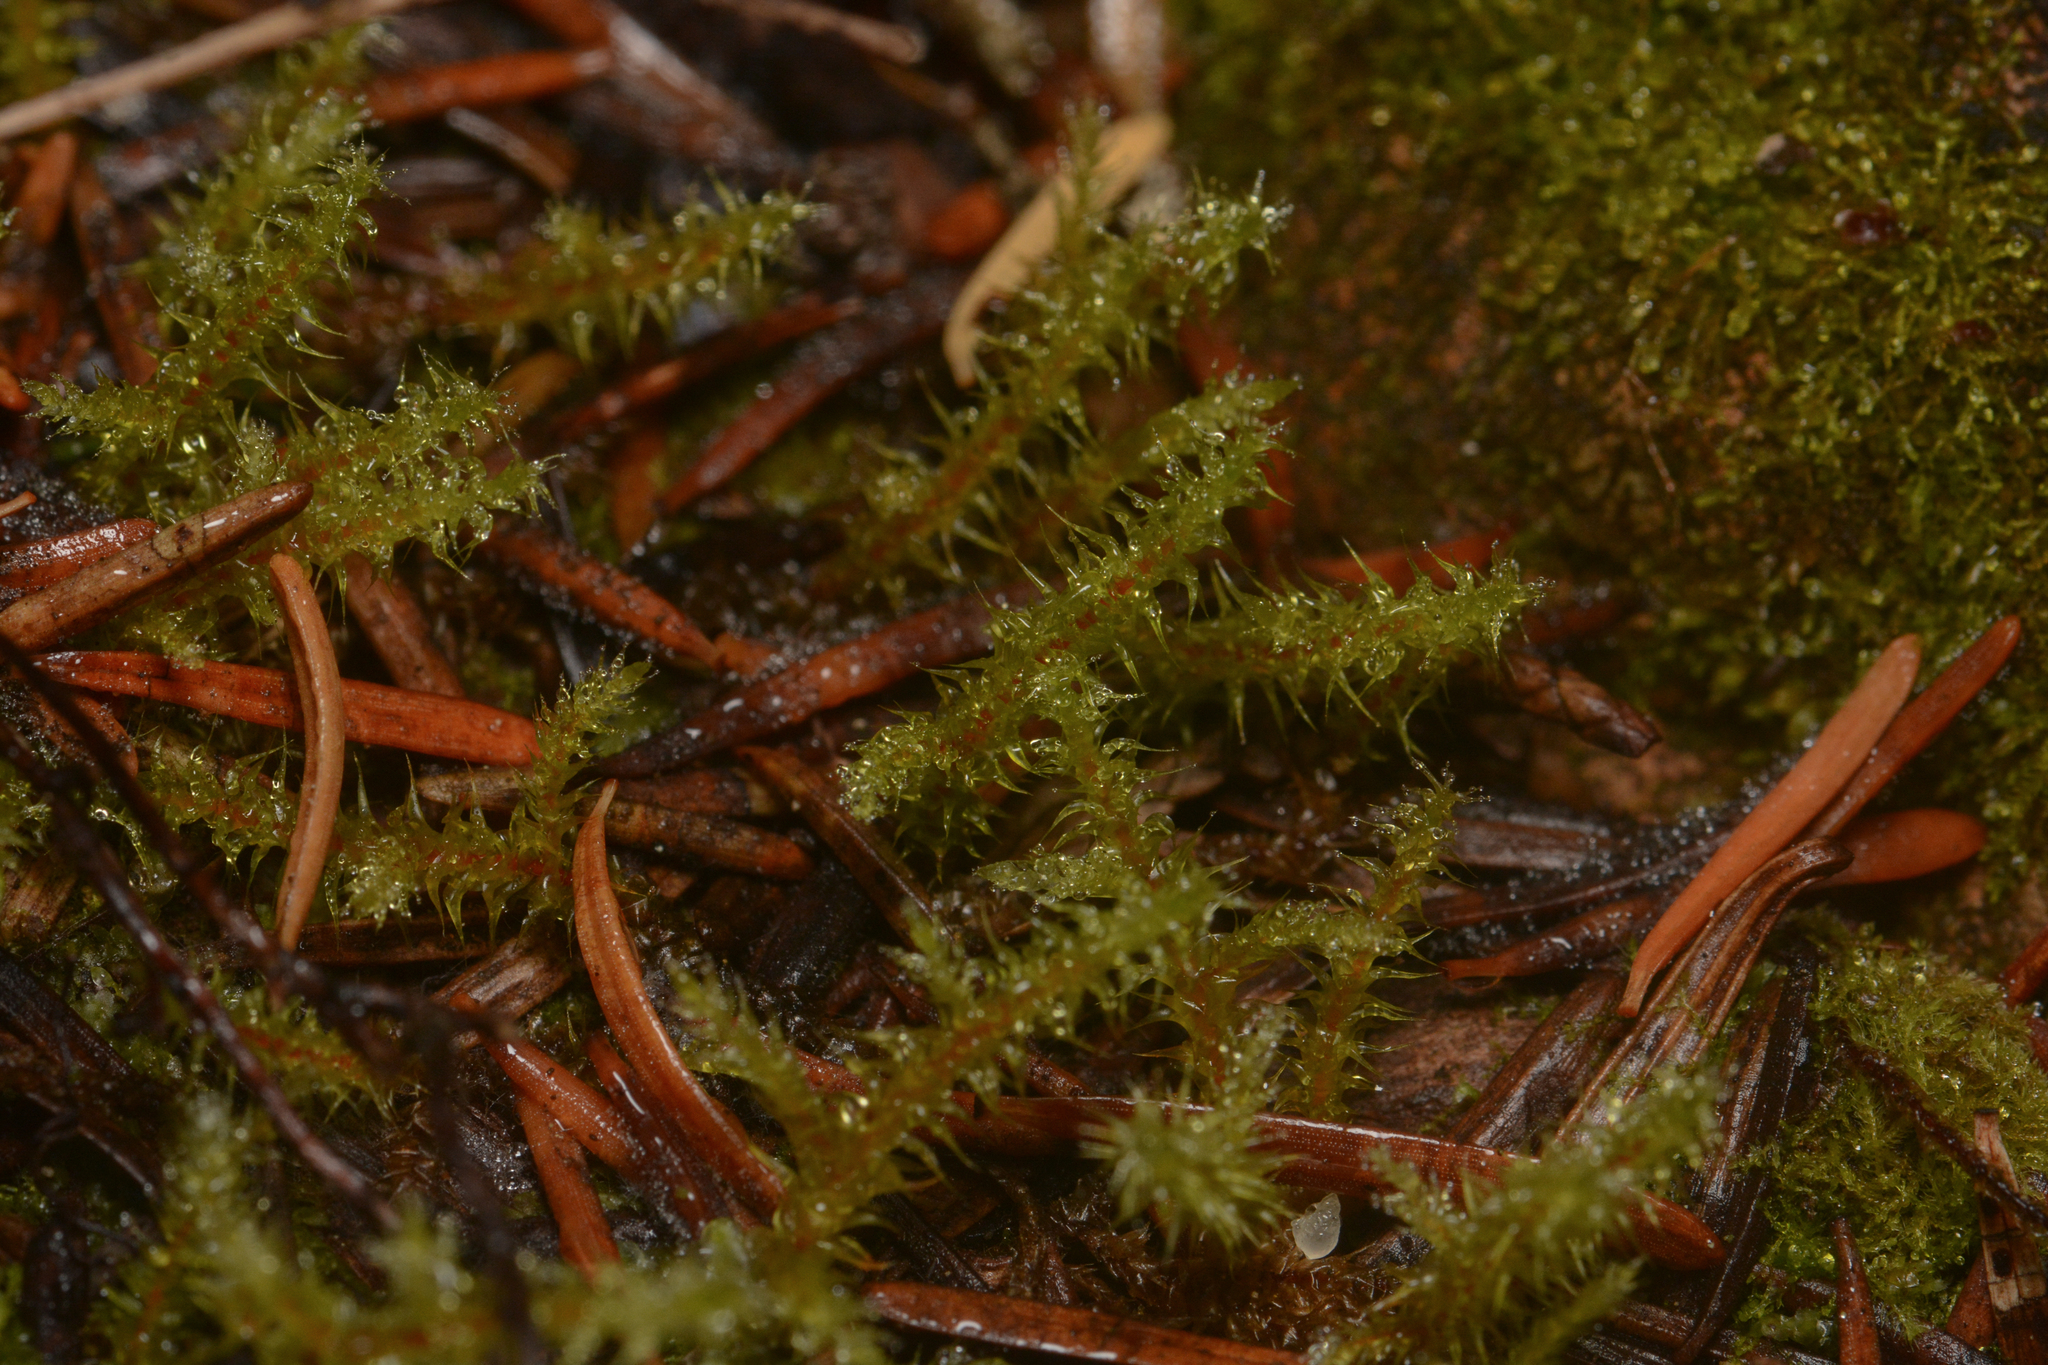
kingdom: Plantae
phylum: Bryophyta
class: Bryopsida
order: Hypnales
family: Hylocomiaceae
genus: Rhytidiadelphus
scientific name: Rhytidiadelphus subpinnatus
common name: Subpinnate gooseneck moss
